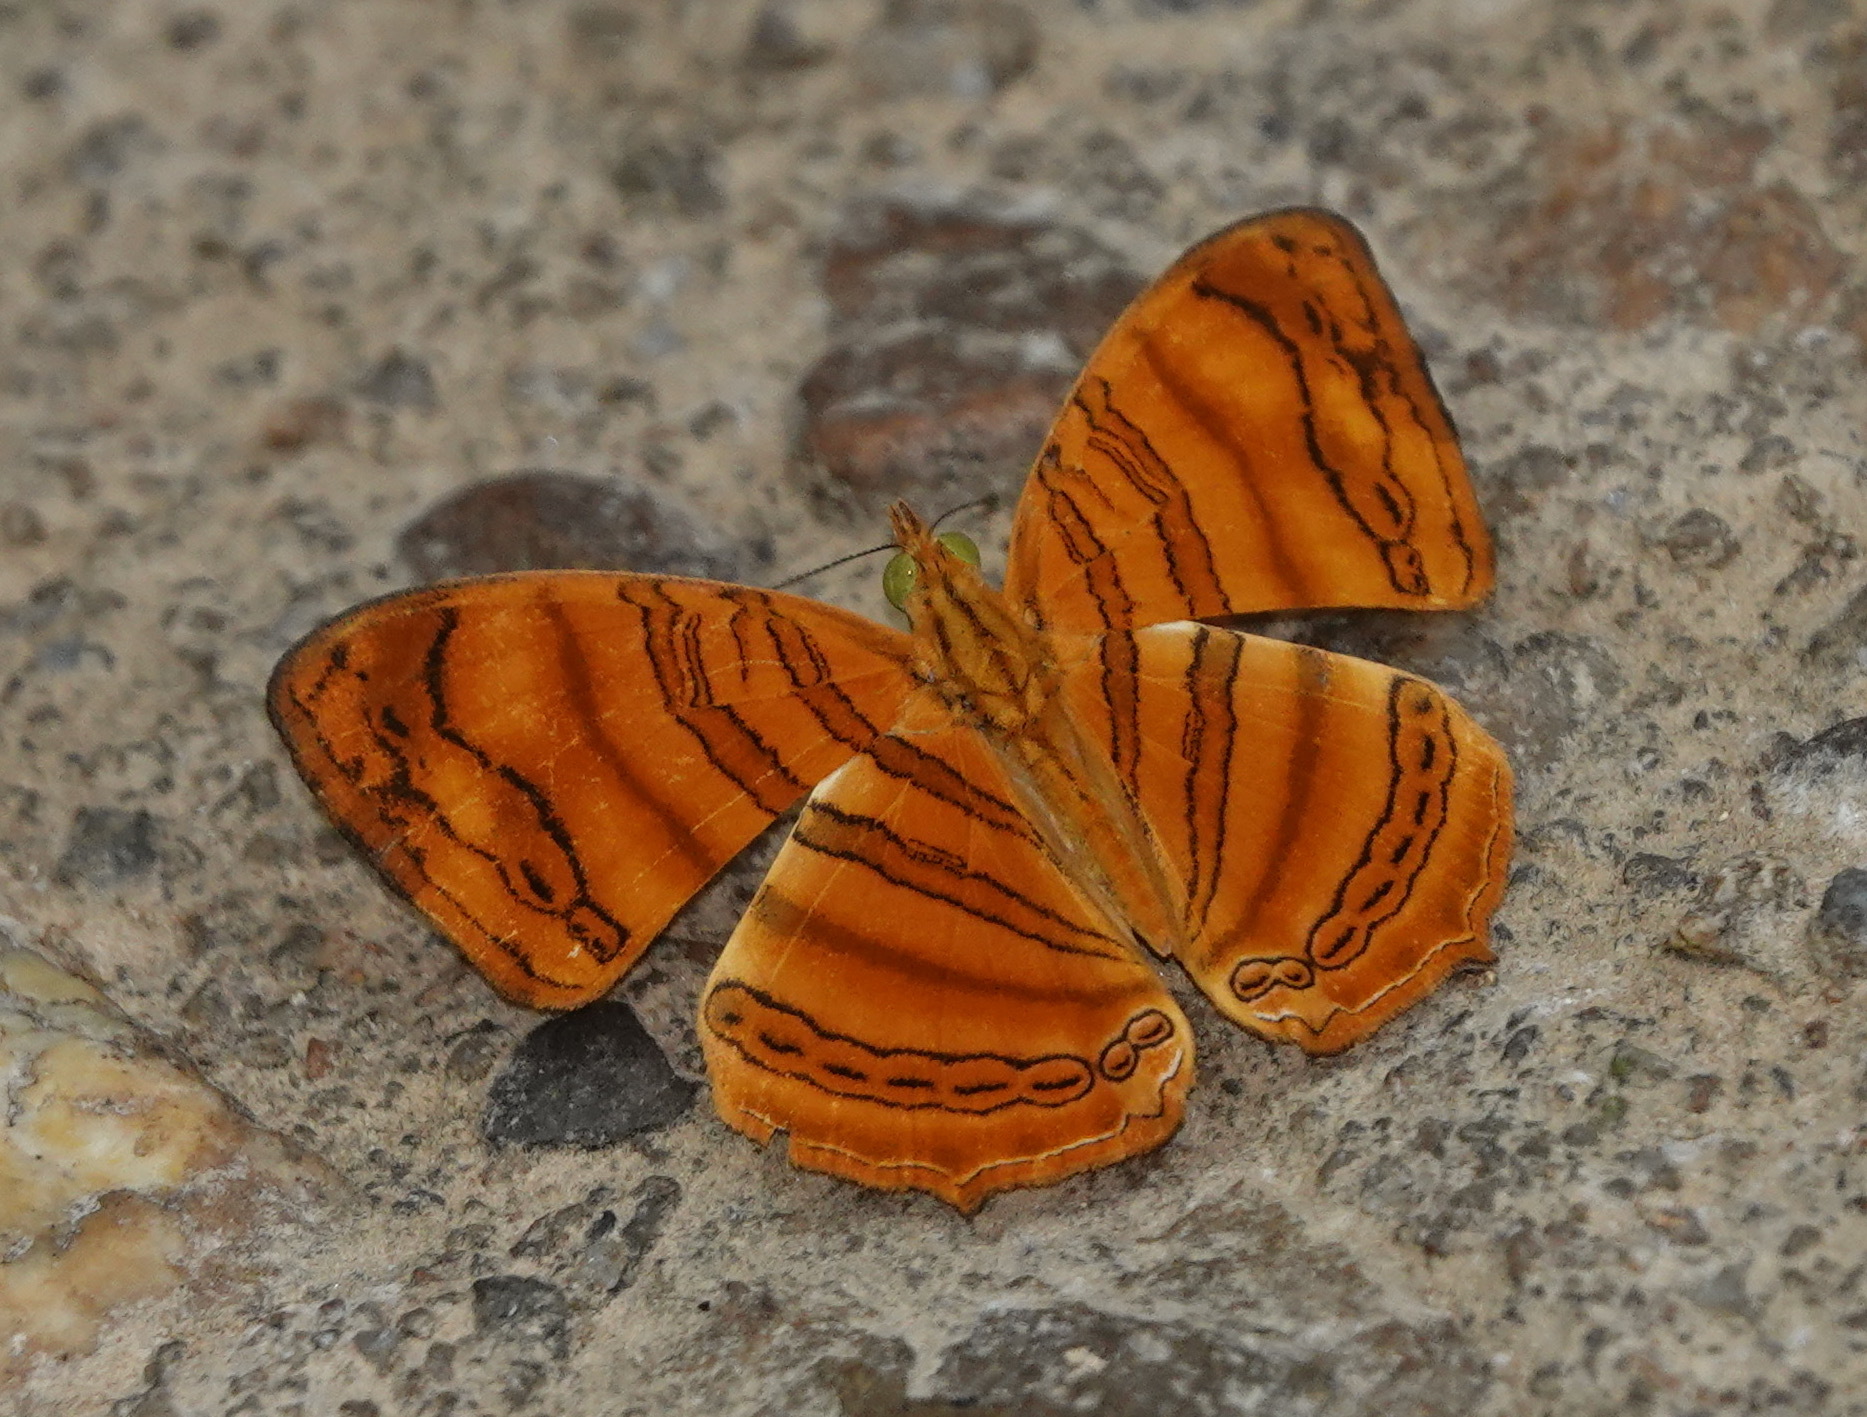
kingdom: Animalia
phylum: Arthropoda
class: Insecta
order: Lepidoptera
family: Nymphalidae
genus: Chersonesia
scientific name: Chersonesia rahria
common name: Wavy maplet
